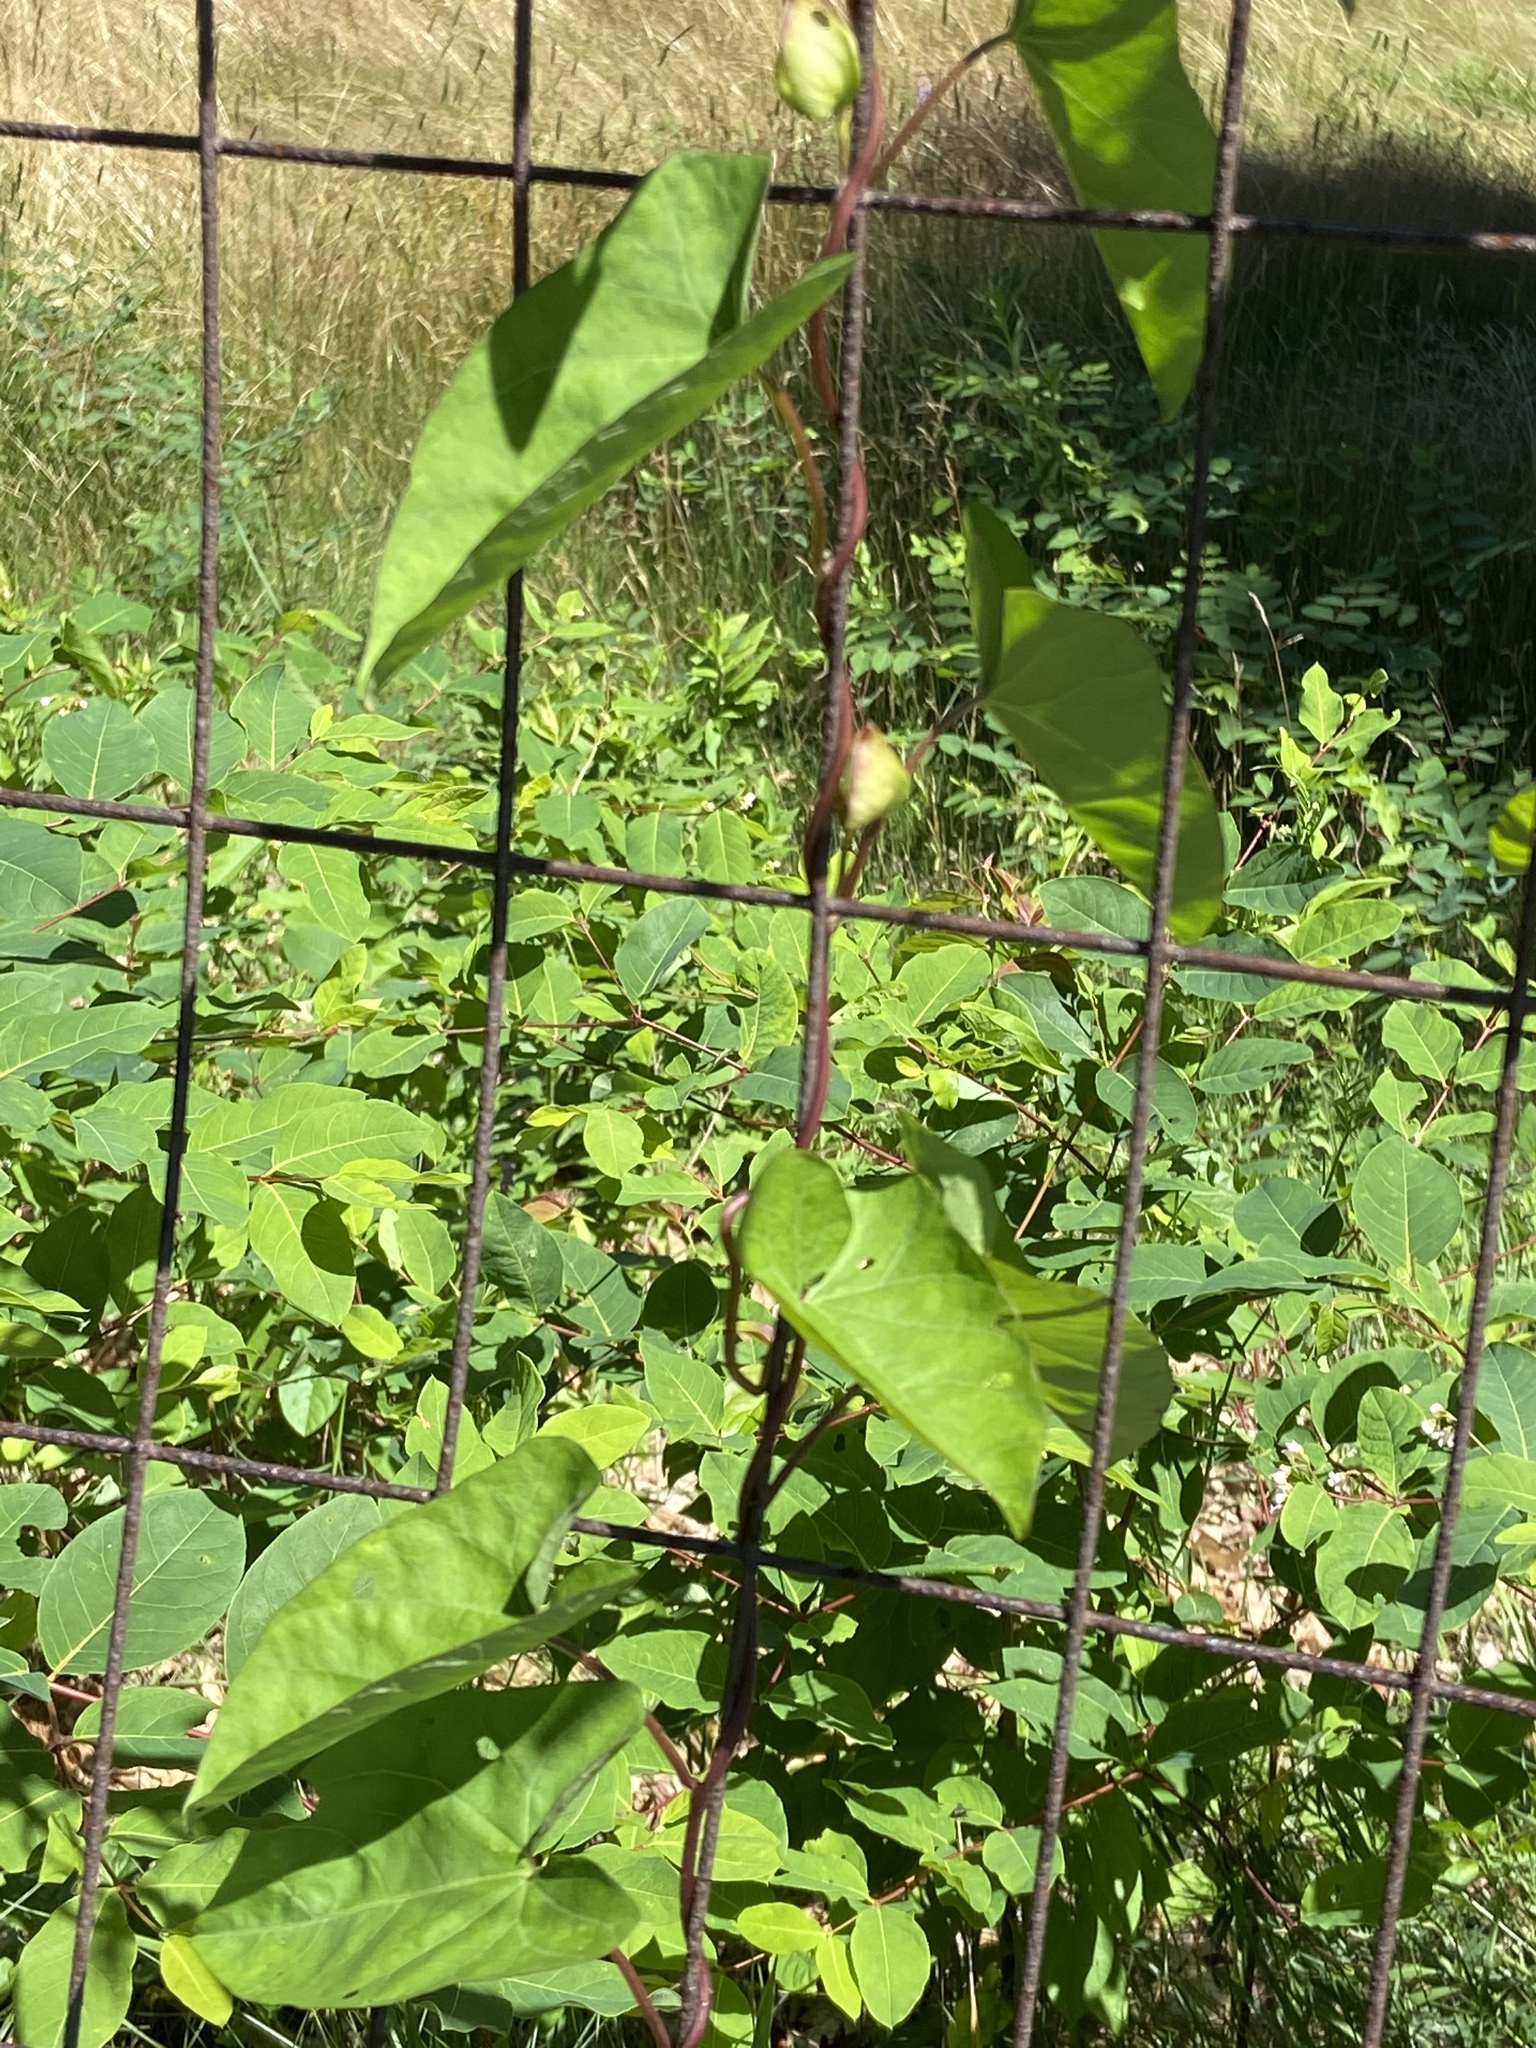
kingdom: Plantae
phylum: Tracheophyta
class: Magnoliopsida
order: Solanales
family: Convolvulaceae
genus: Convolvulus
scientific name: Convolvulus arvensis
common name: Field bindweed
